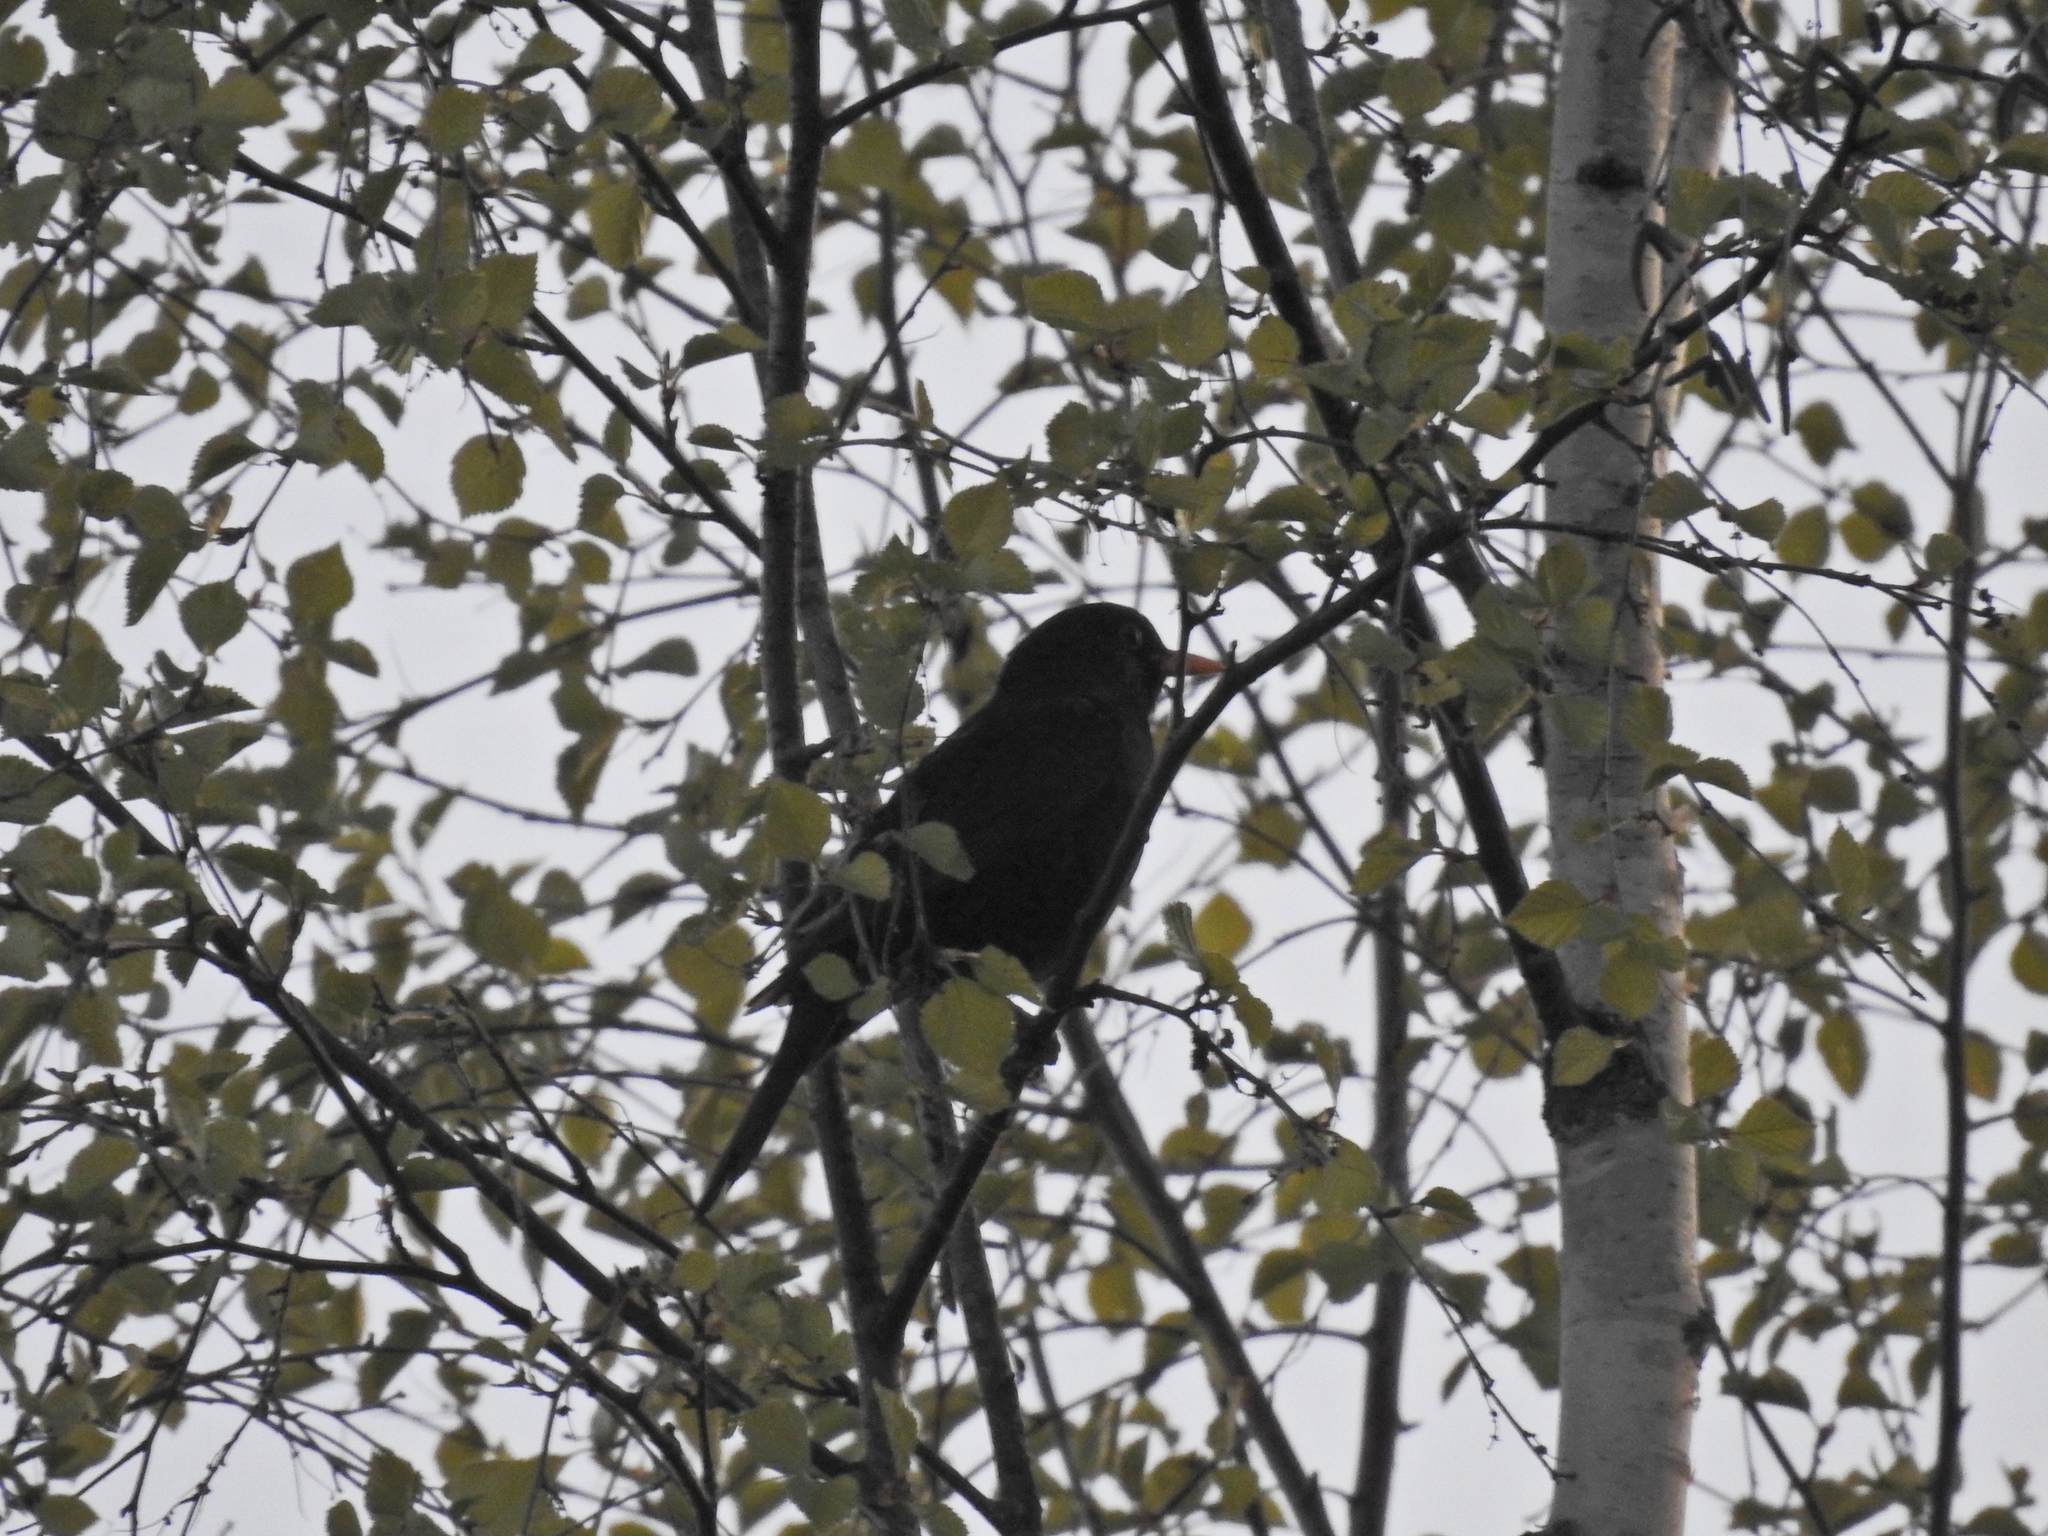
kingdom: Animalia
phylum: Chordata
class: Aves
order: Passeriformes
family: Turdidae
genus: Turdus
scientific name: Turdus merula
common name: Common blackbird
